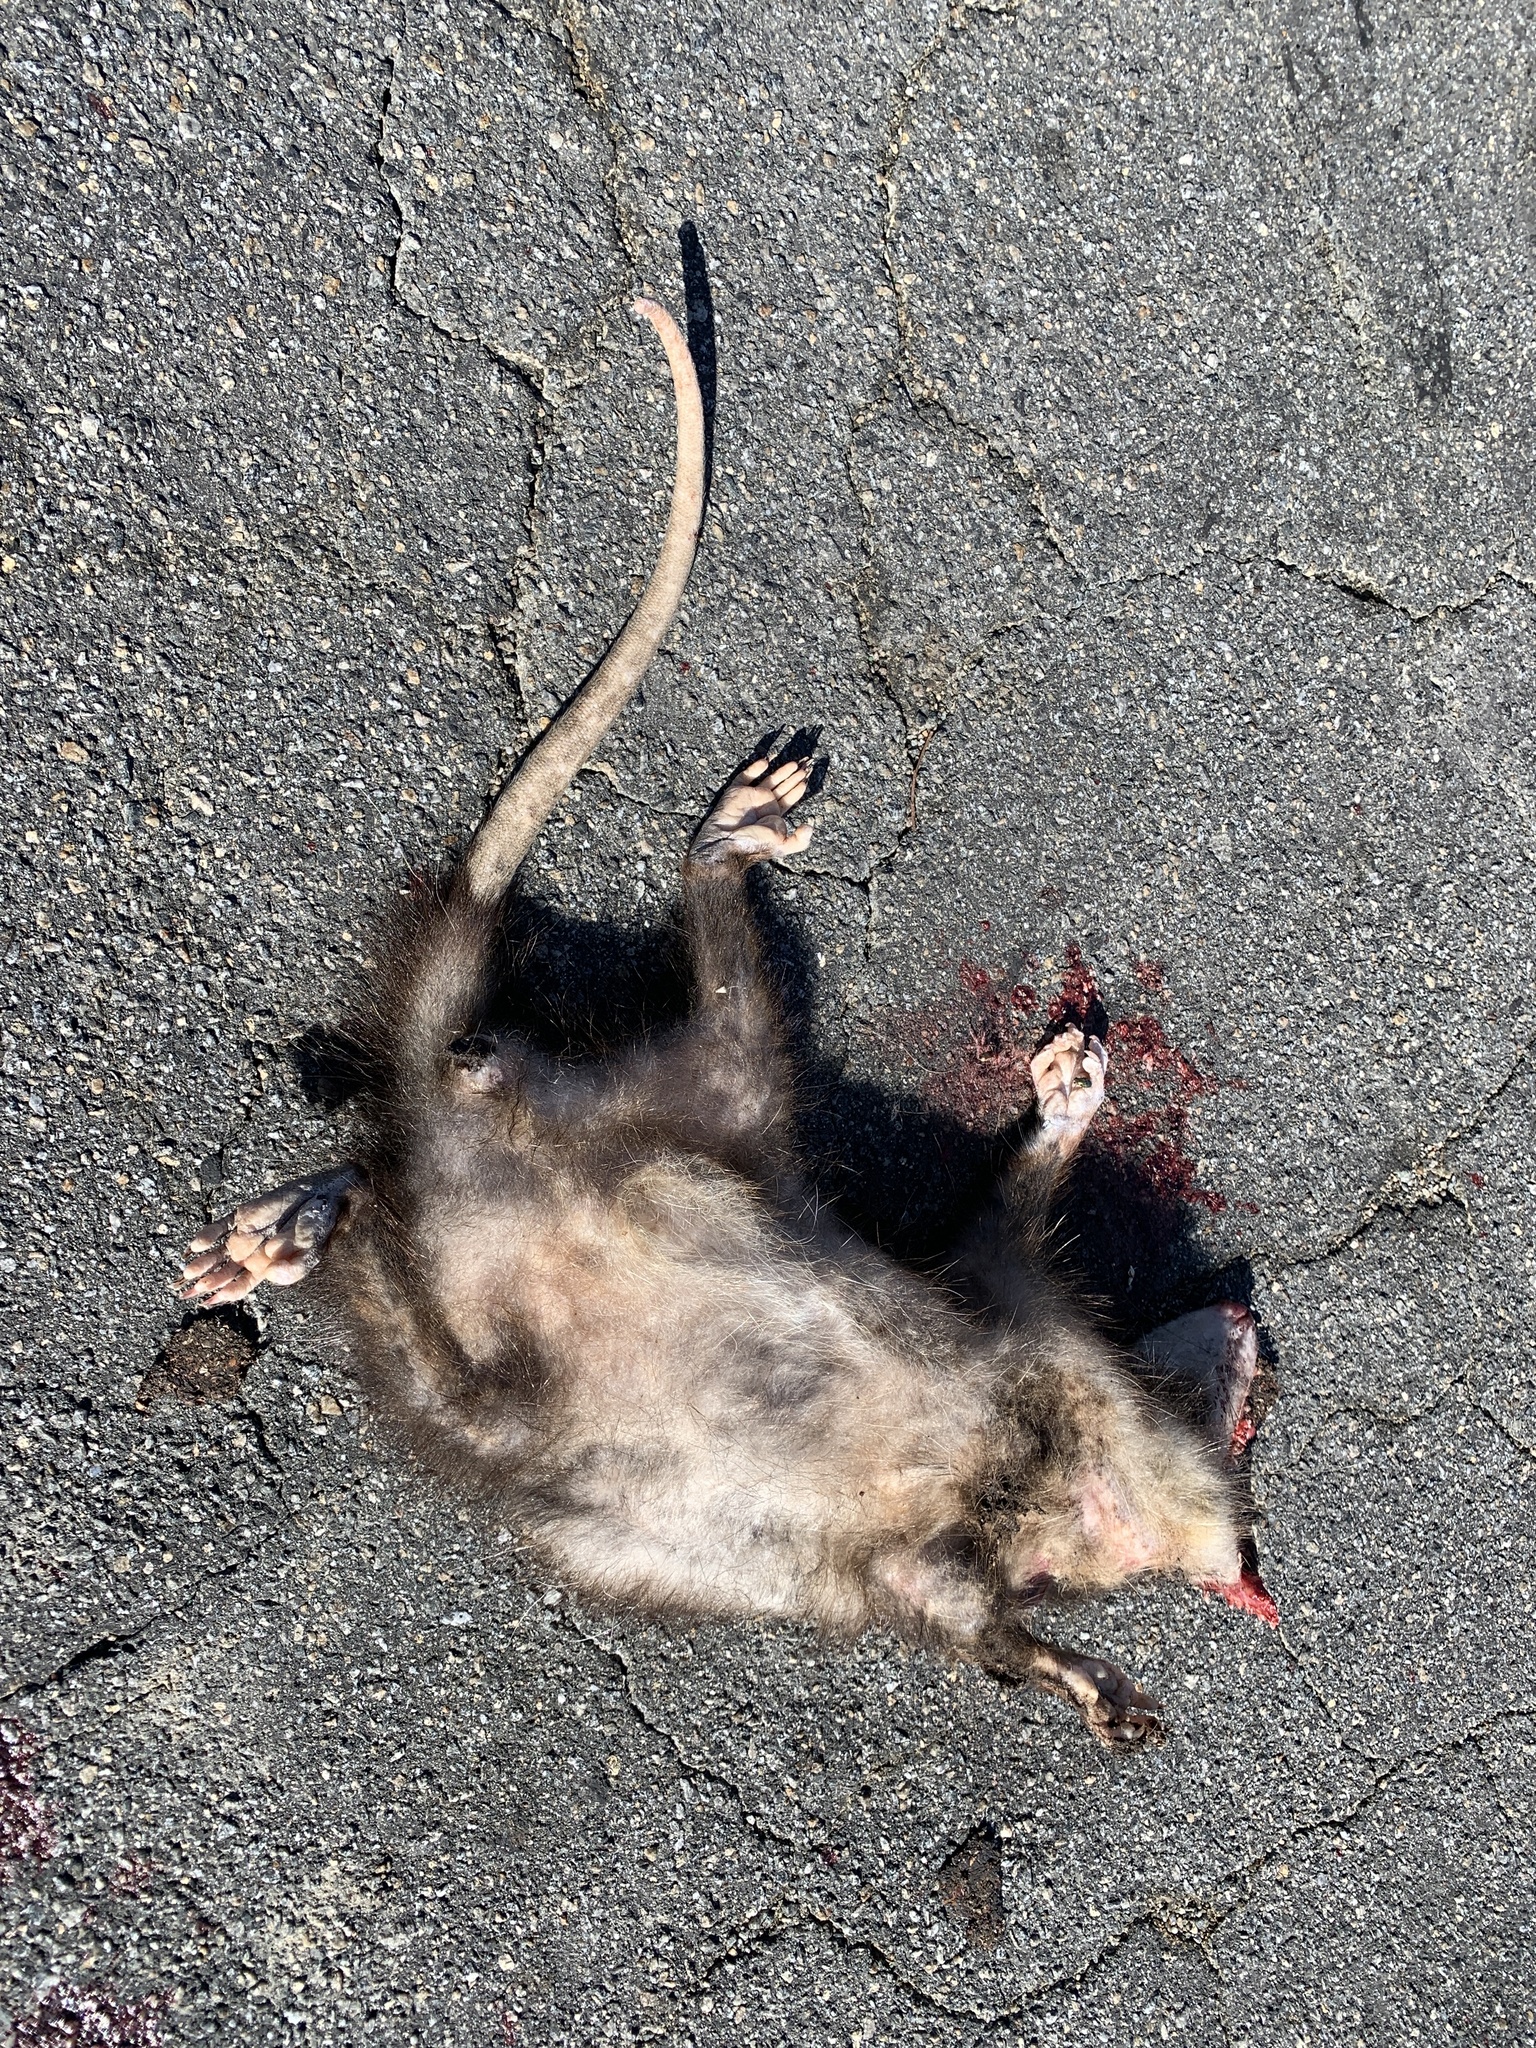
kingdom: Animalia
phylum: Chordata
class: Mammalia
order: Didelphimorphia
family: Didelphidae
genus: Didelphis
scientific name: Didelphis virginiana
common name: Virginia opossum
